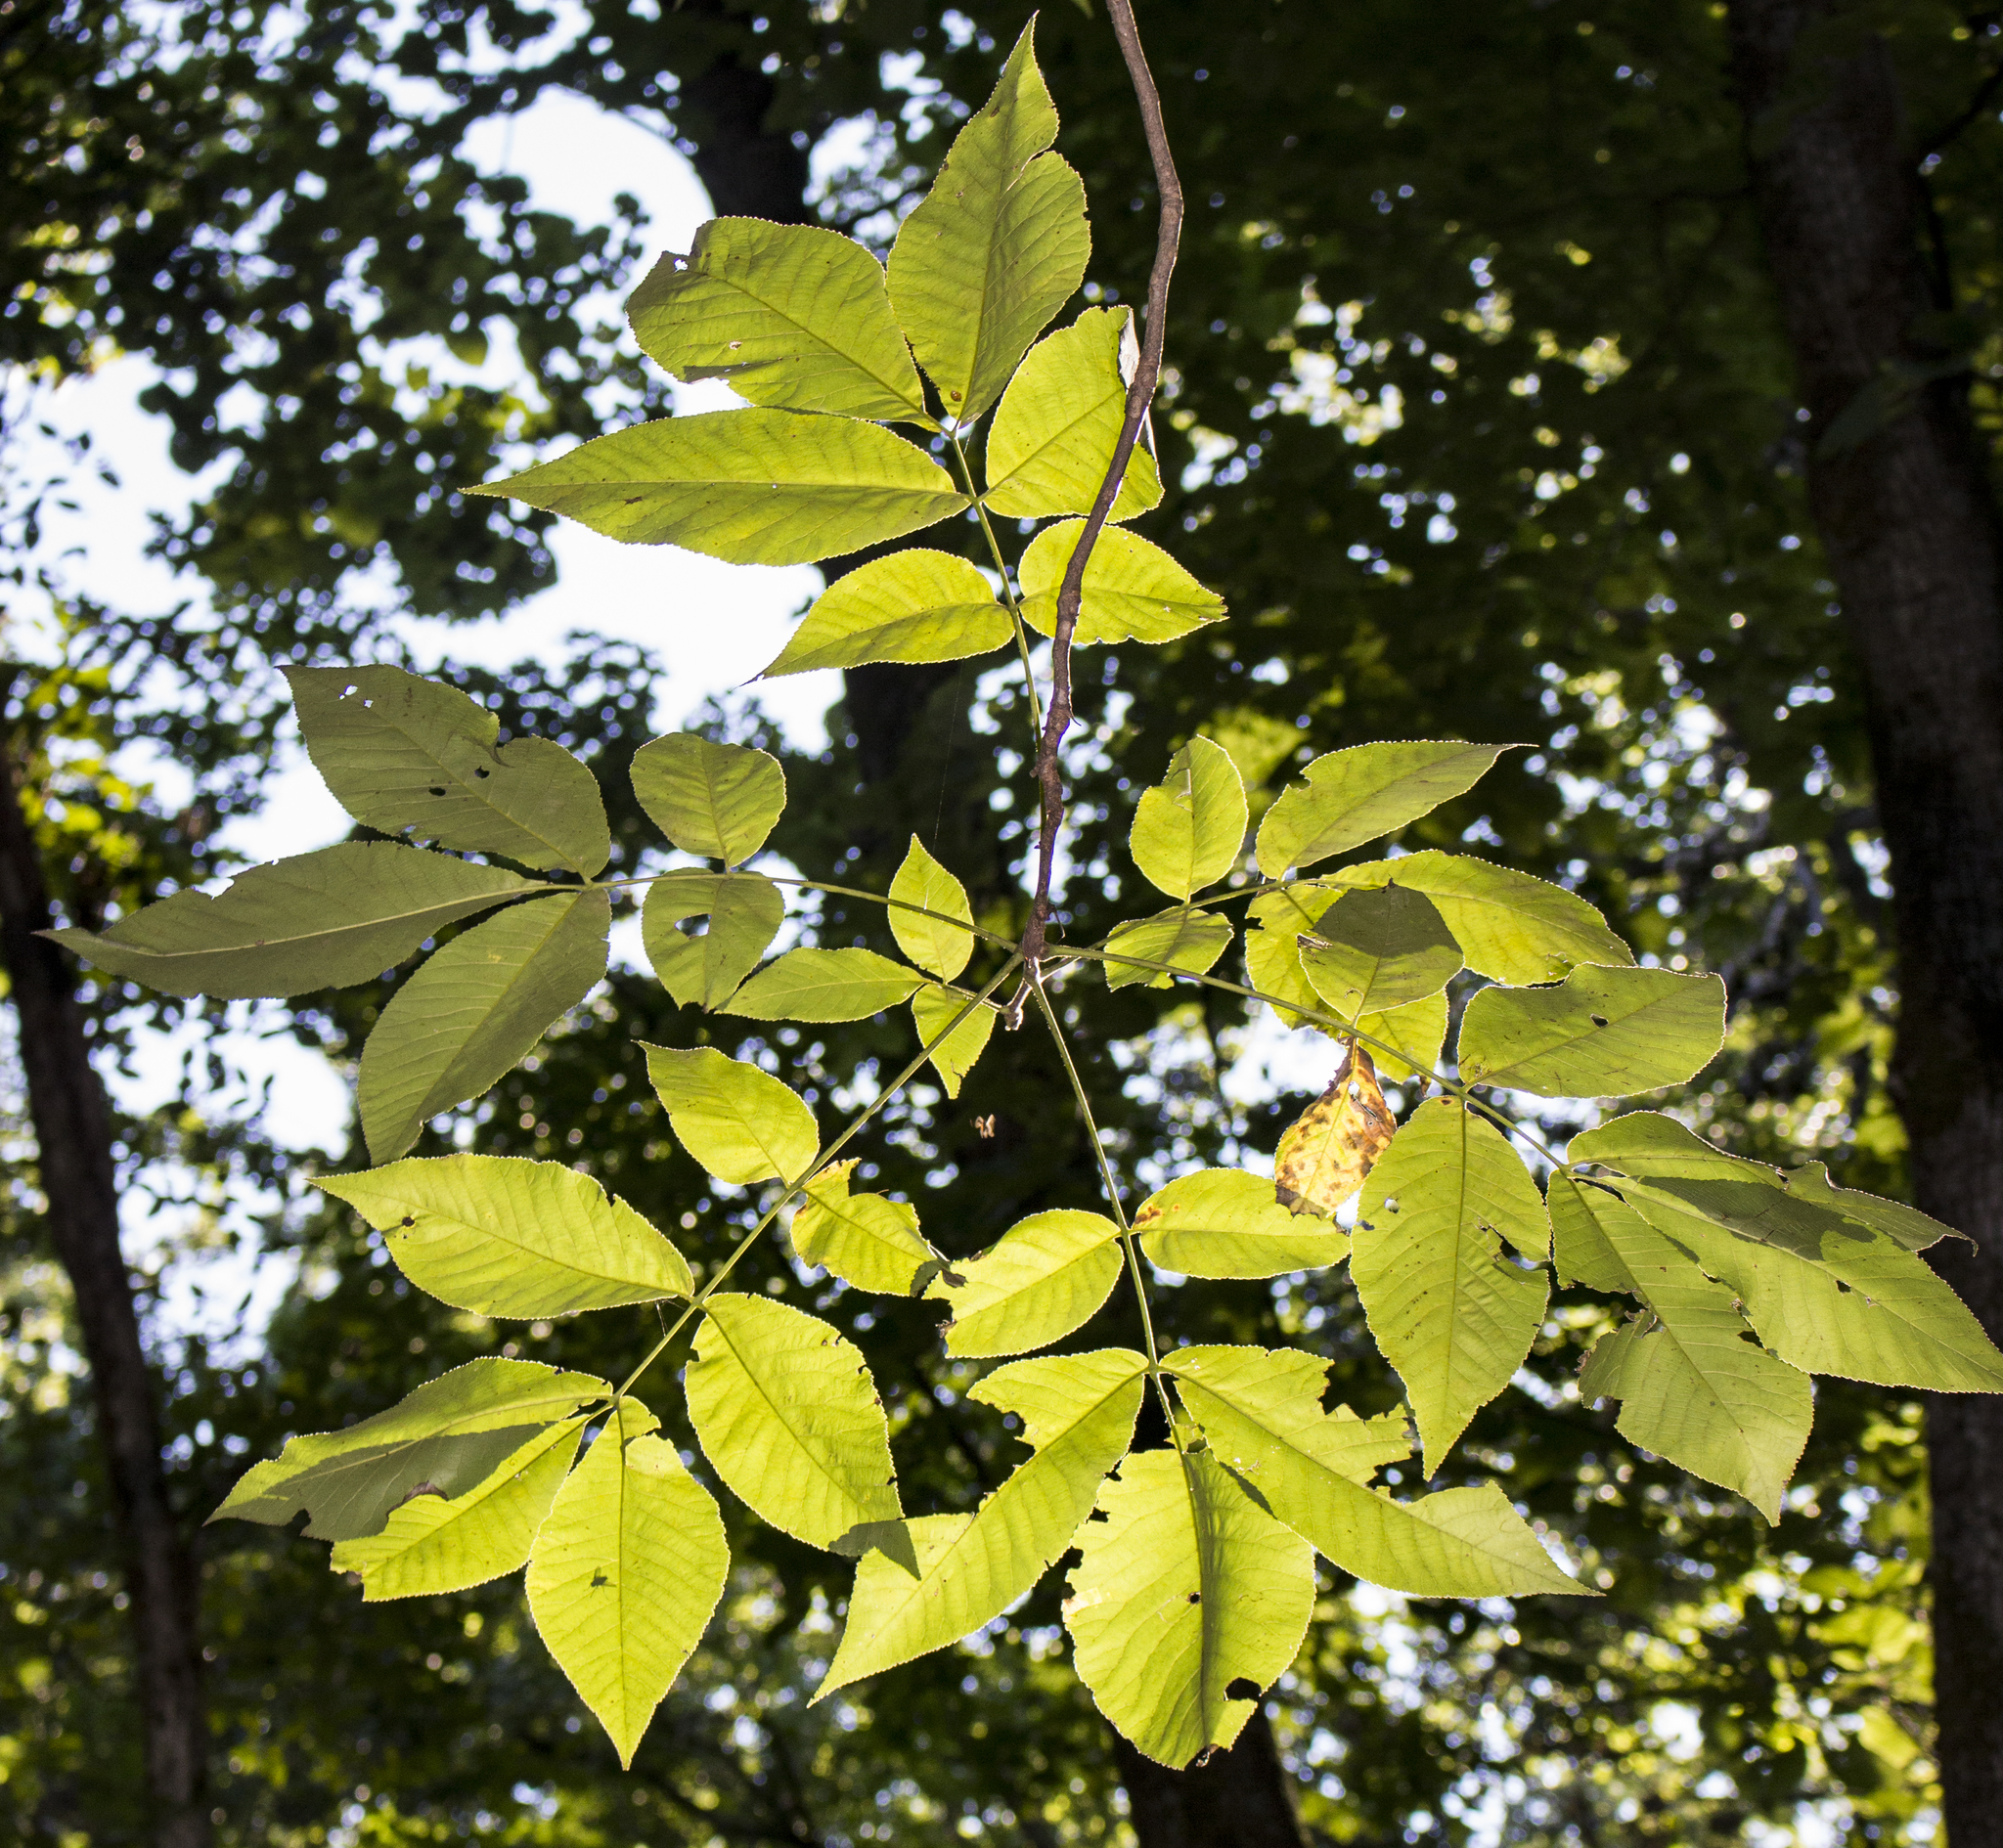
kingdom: Plantae
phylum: Tracheophyta
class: Magnoliopsida
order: Fagales
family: Juglandaceae
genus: Carya
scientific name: Carya ovata
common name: Shagbark hickory
